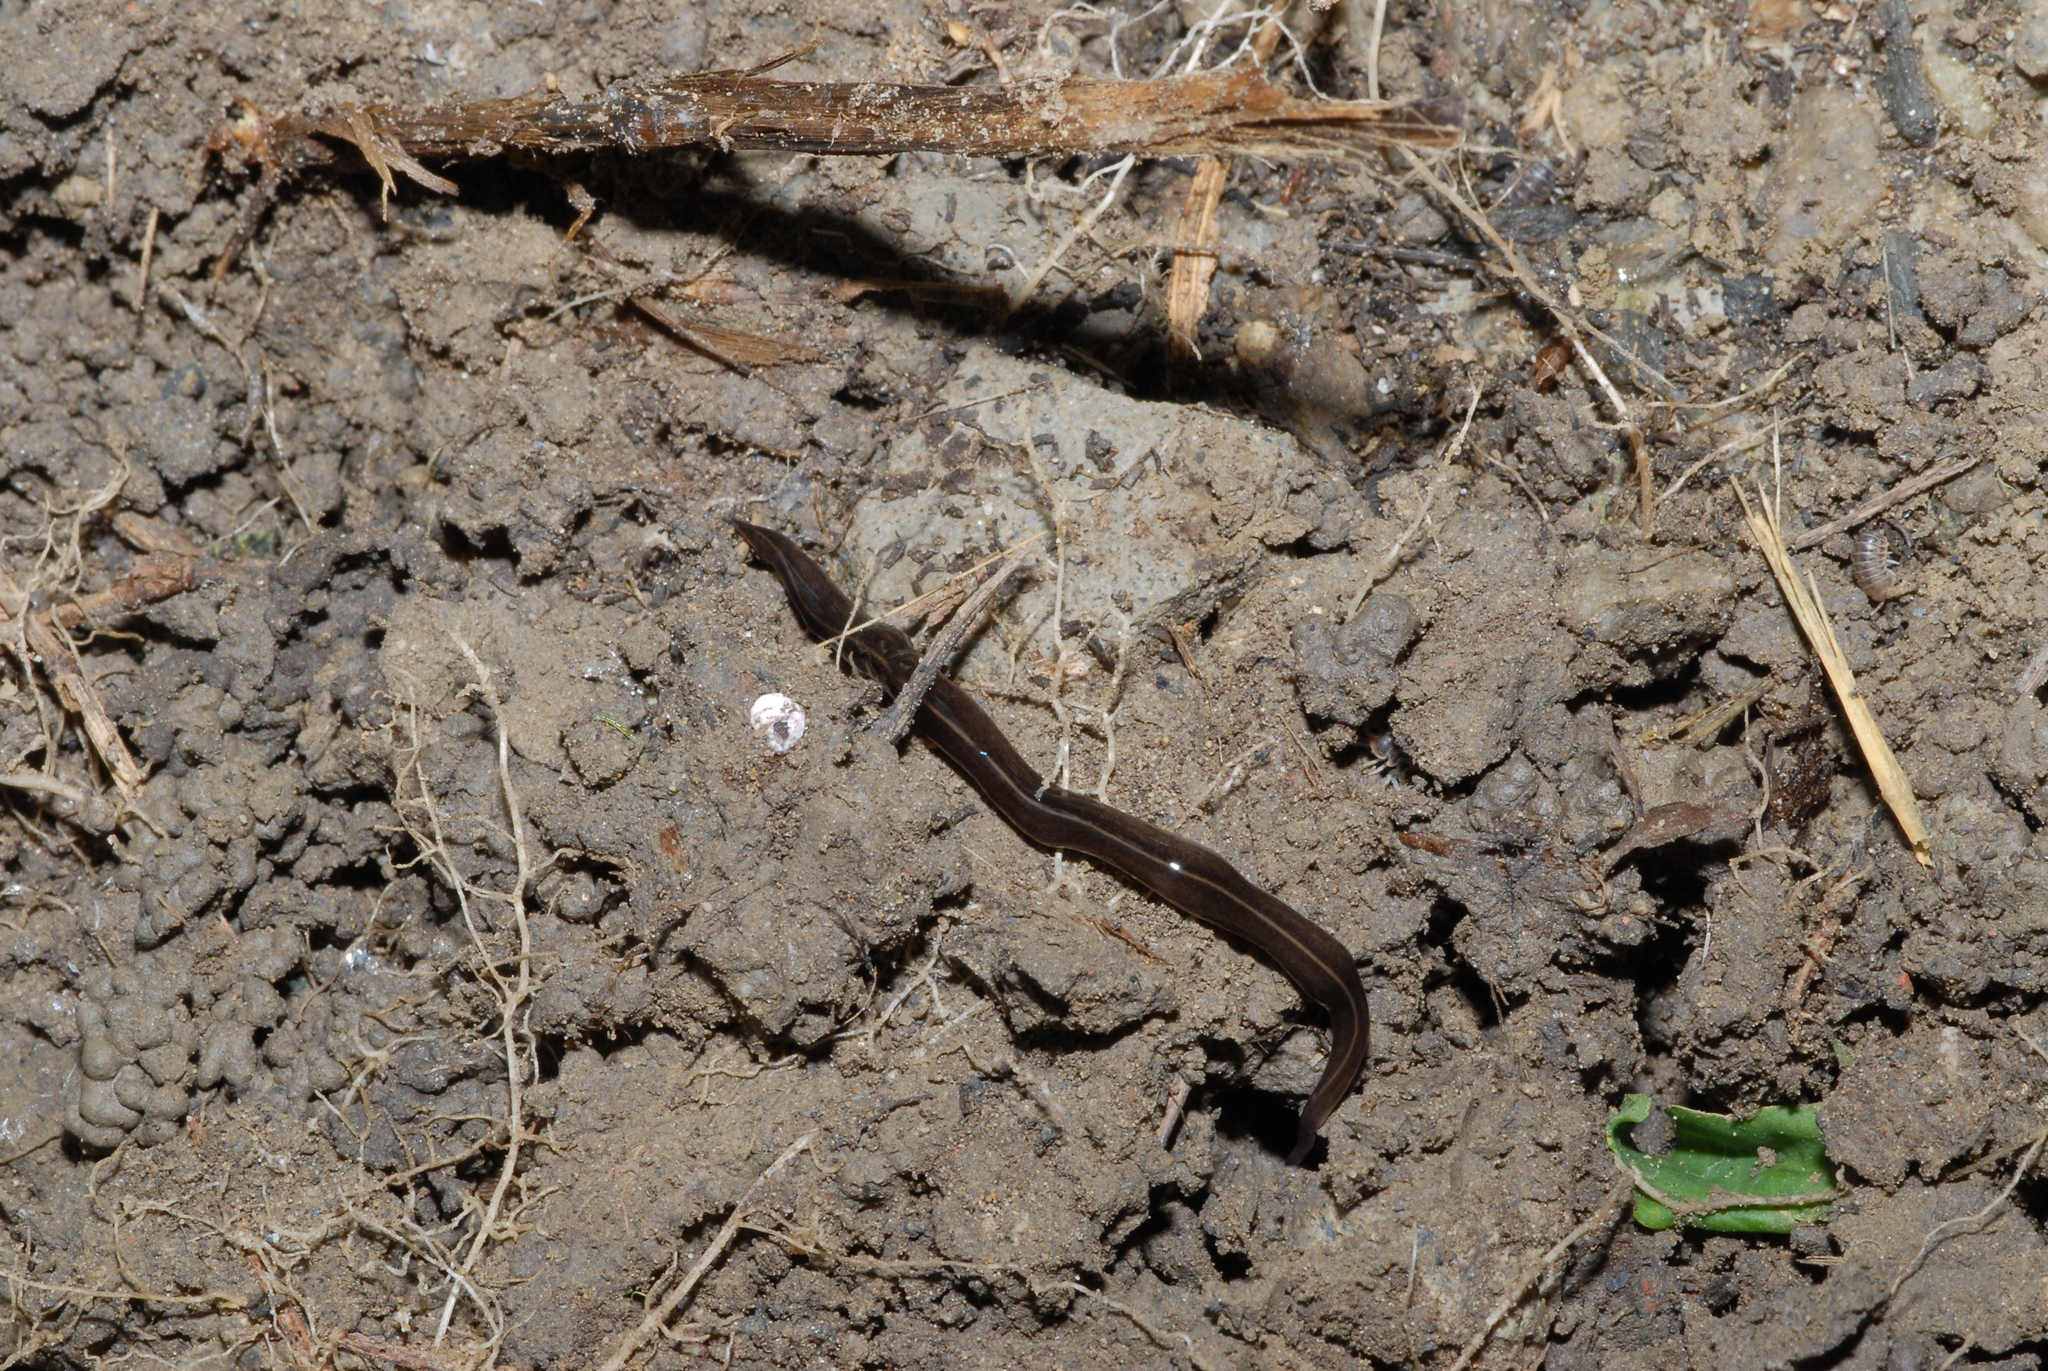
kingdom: Animalia
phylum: Platyhelminthes
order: Tricladida
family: Geoplanidae
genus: Platydemus
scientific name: Platydemus manokwari
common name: New guinea flatworm
